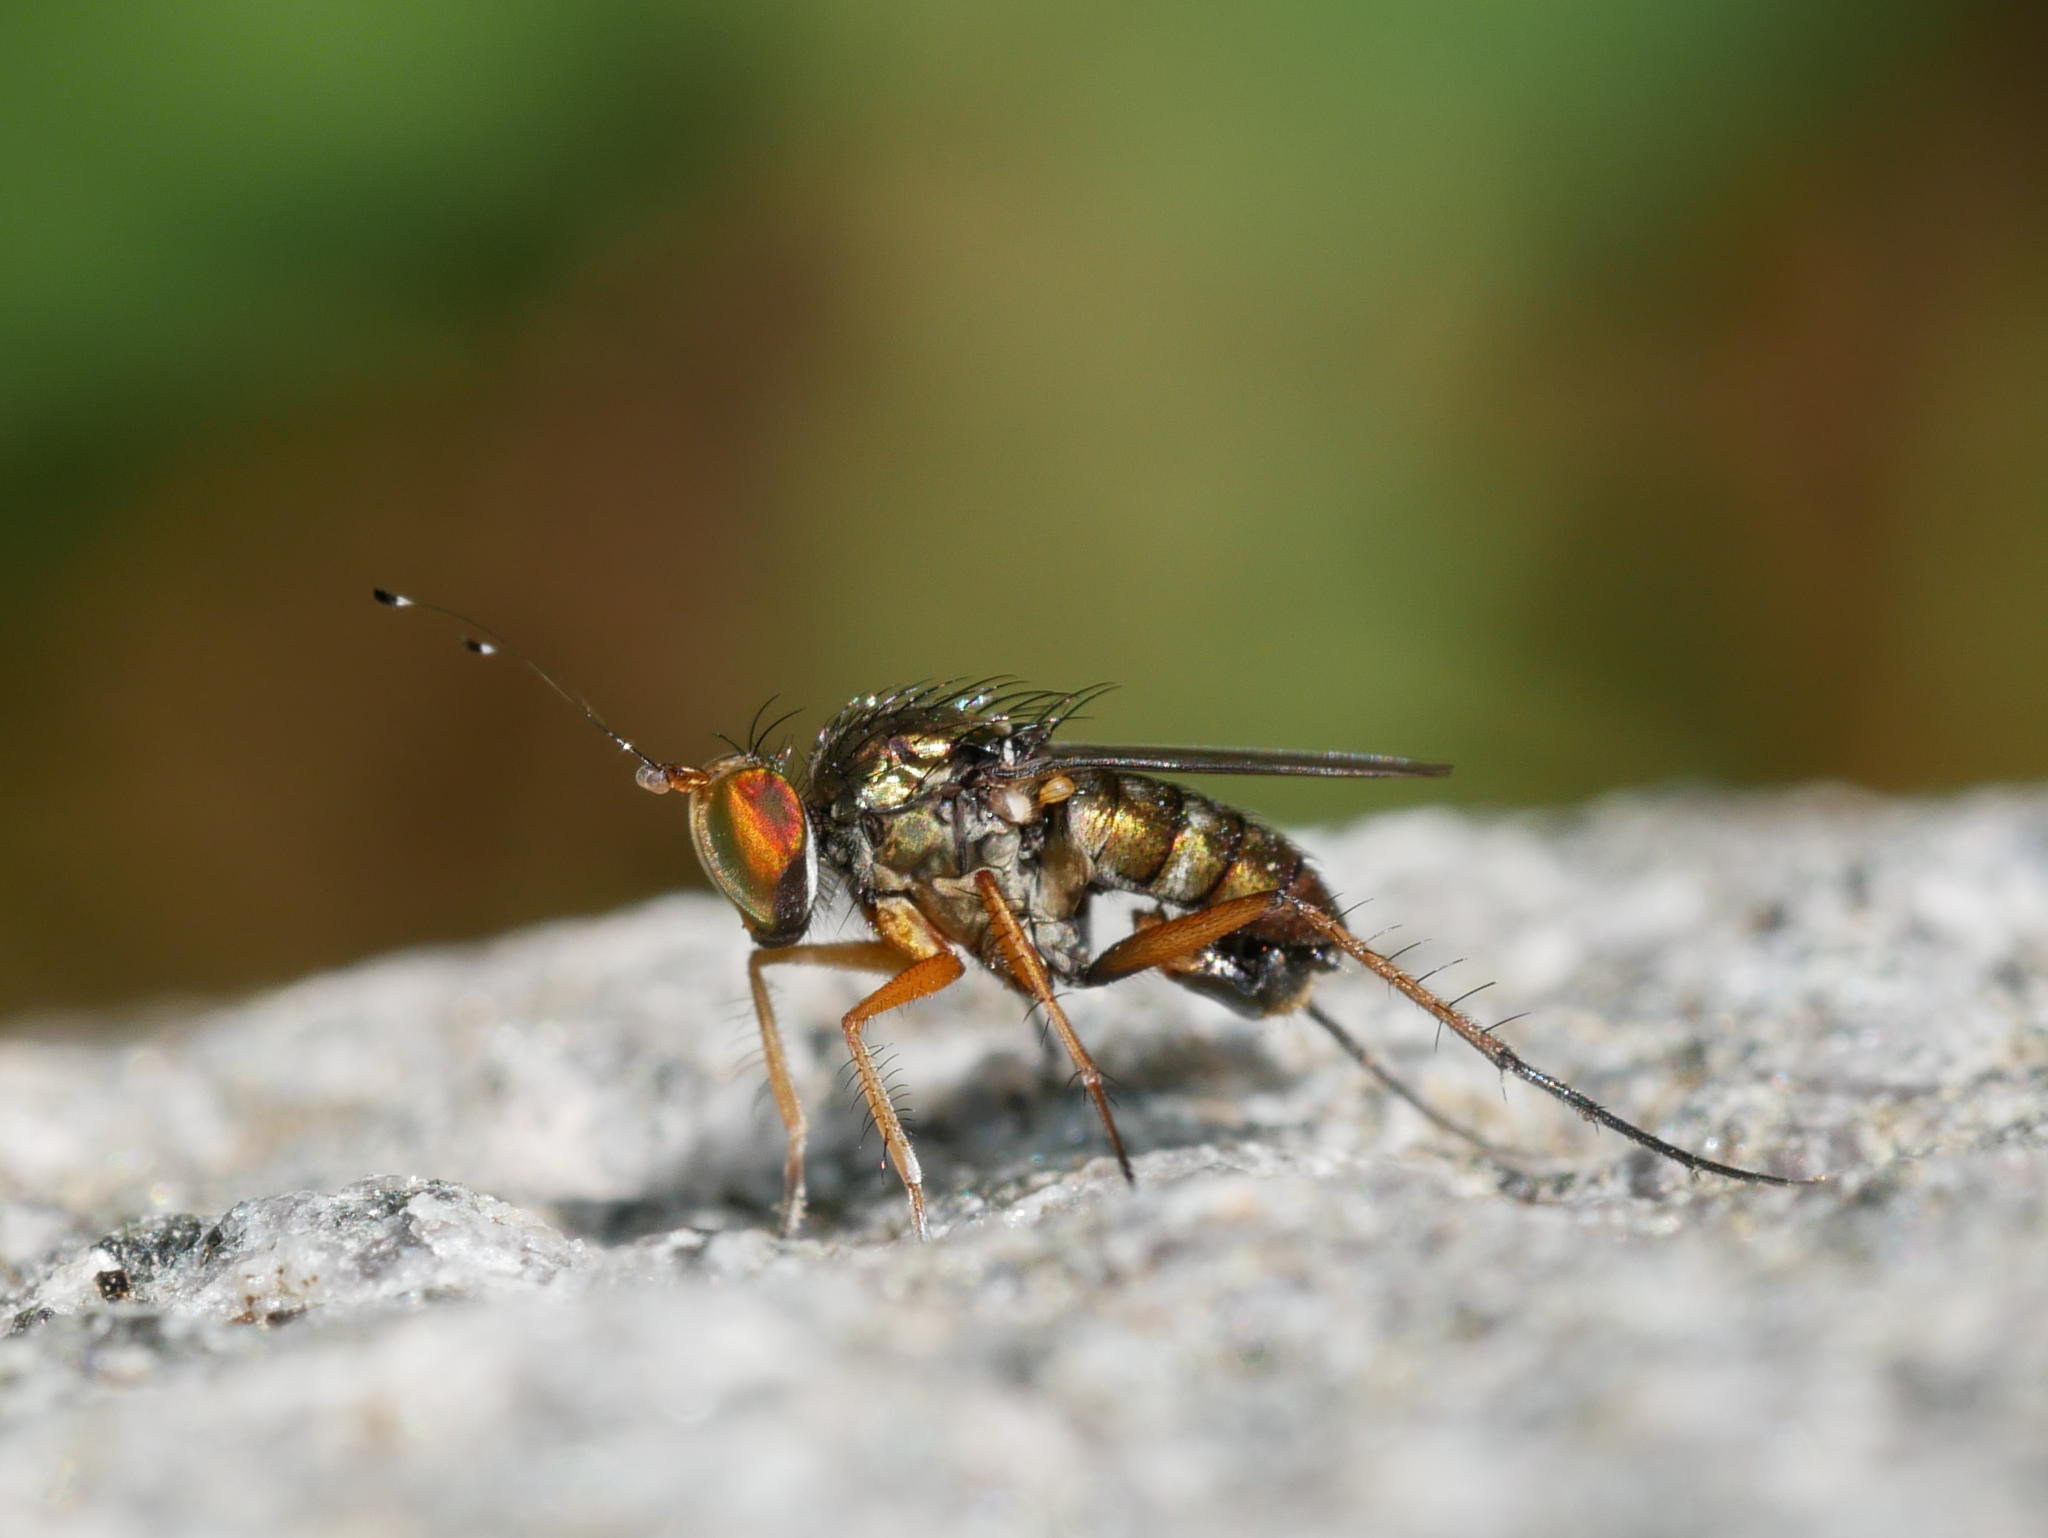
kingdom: Animalia
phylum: Arthropoda
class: Insecta
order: Diptera
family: Dolichopodidae
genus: Tachytrechus
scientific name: Tachytrechus sanus
